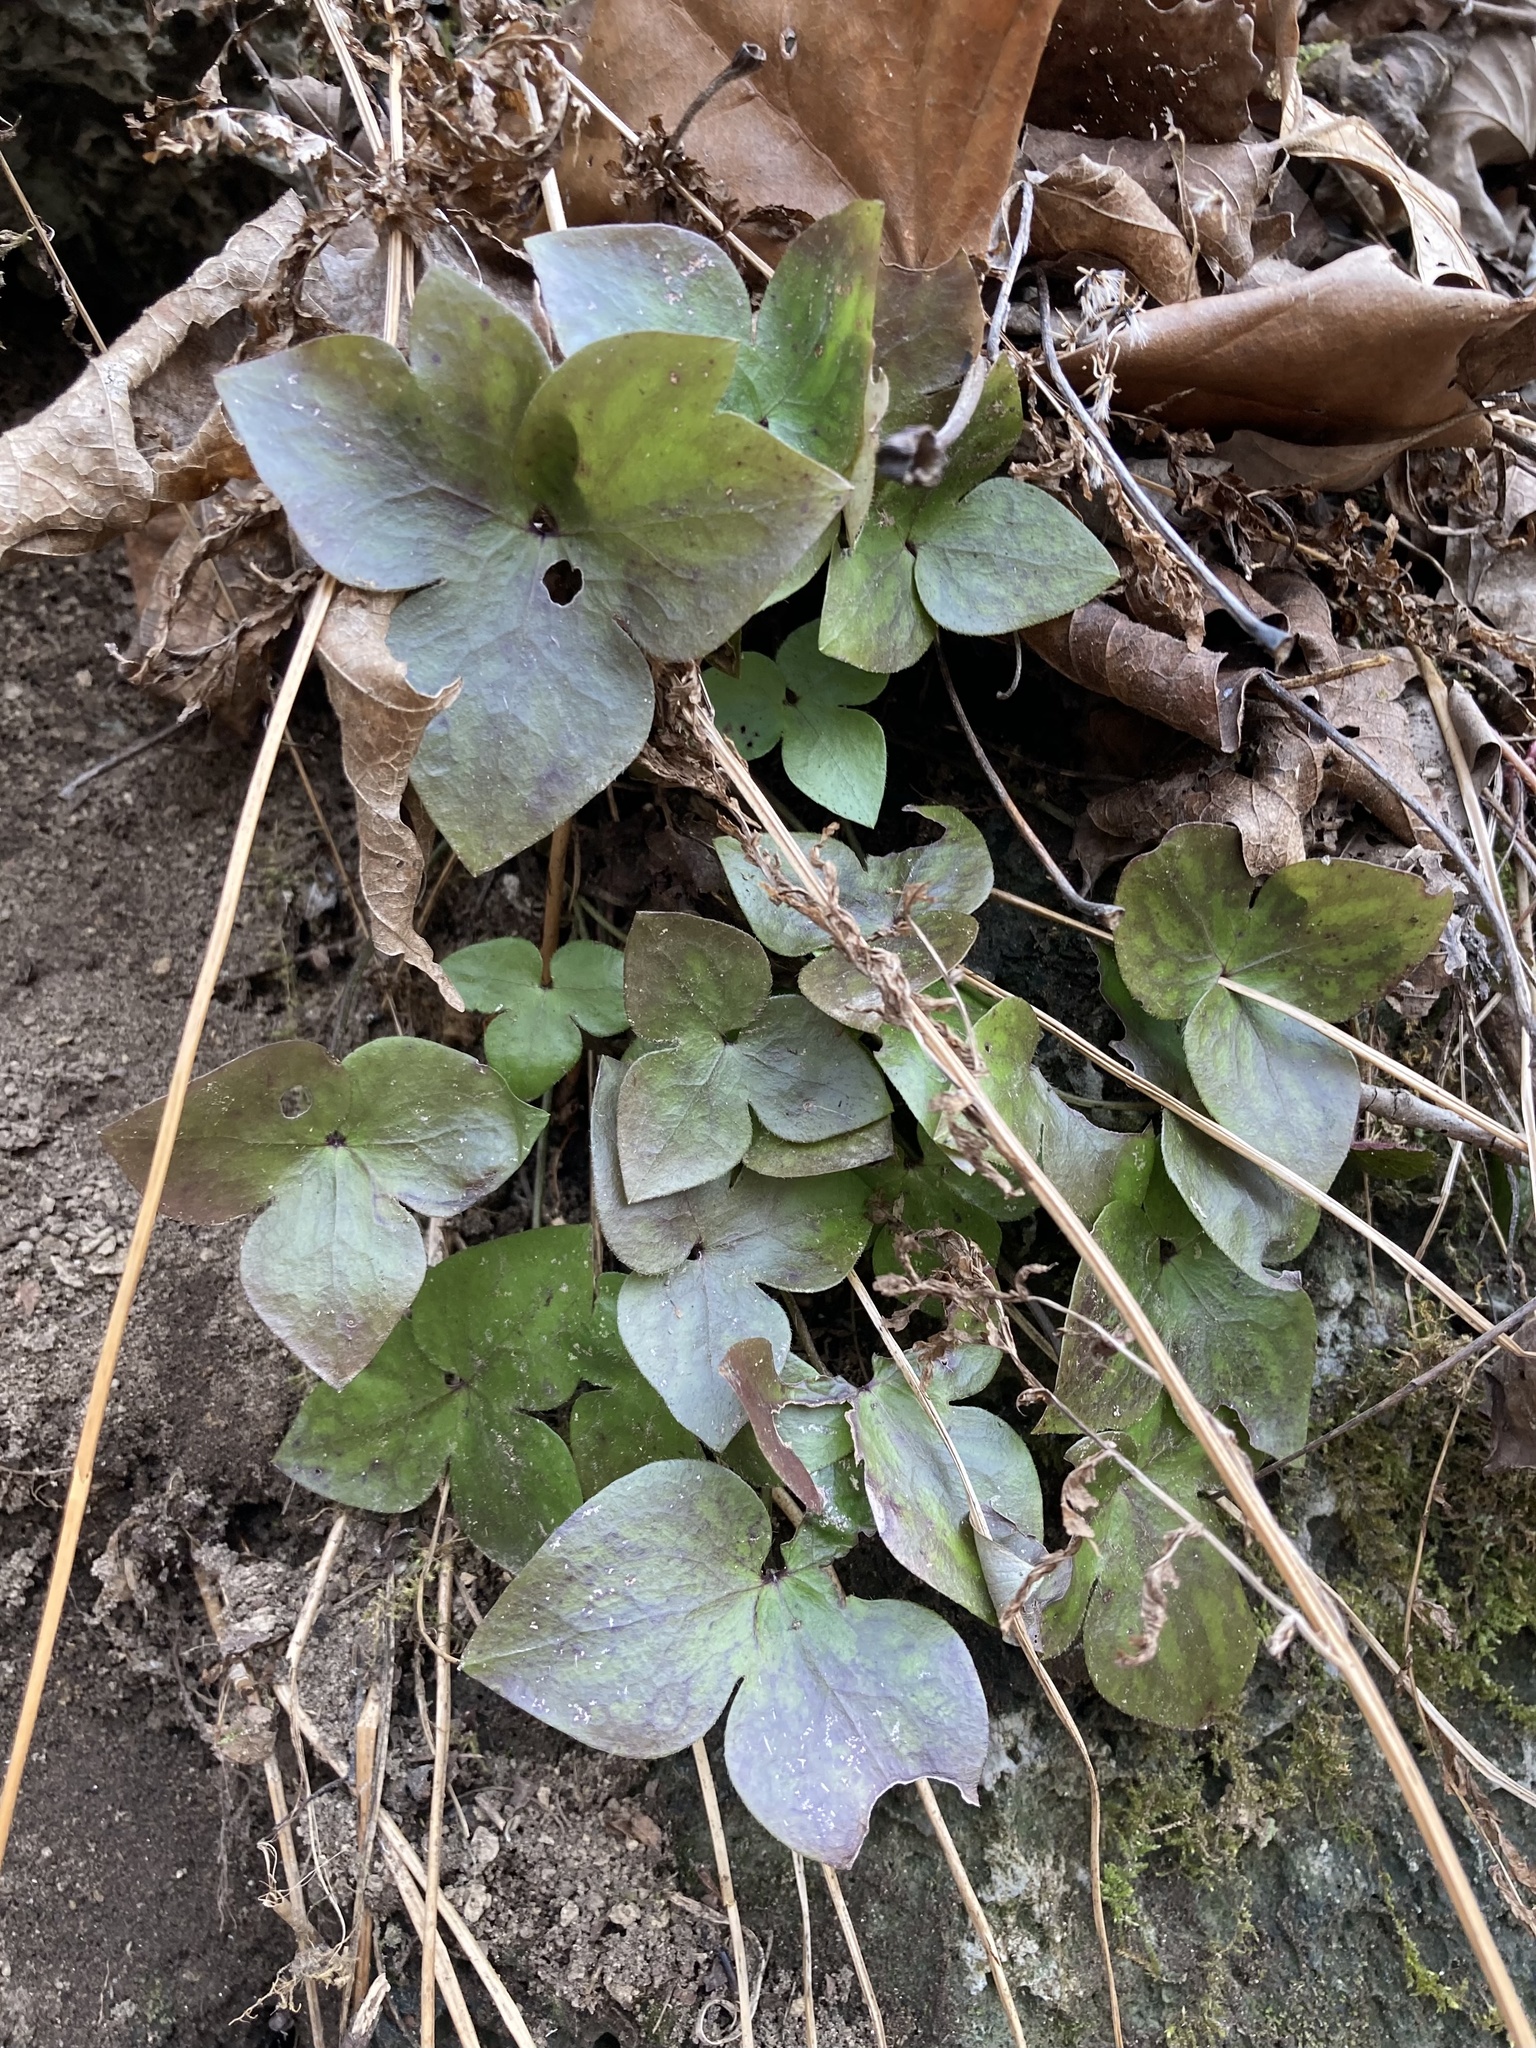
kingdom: Plantae
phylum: Tracheophyta
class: Magnoliopsida
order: Ranunculales
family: Ranunculaceae
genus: Hepatica
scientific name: Hepatica acutiloba
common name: Sharp-lobed hepatica
